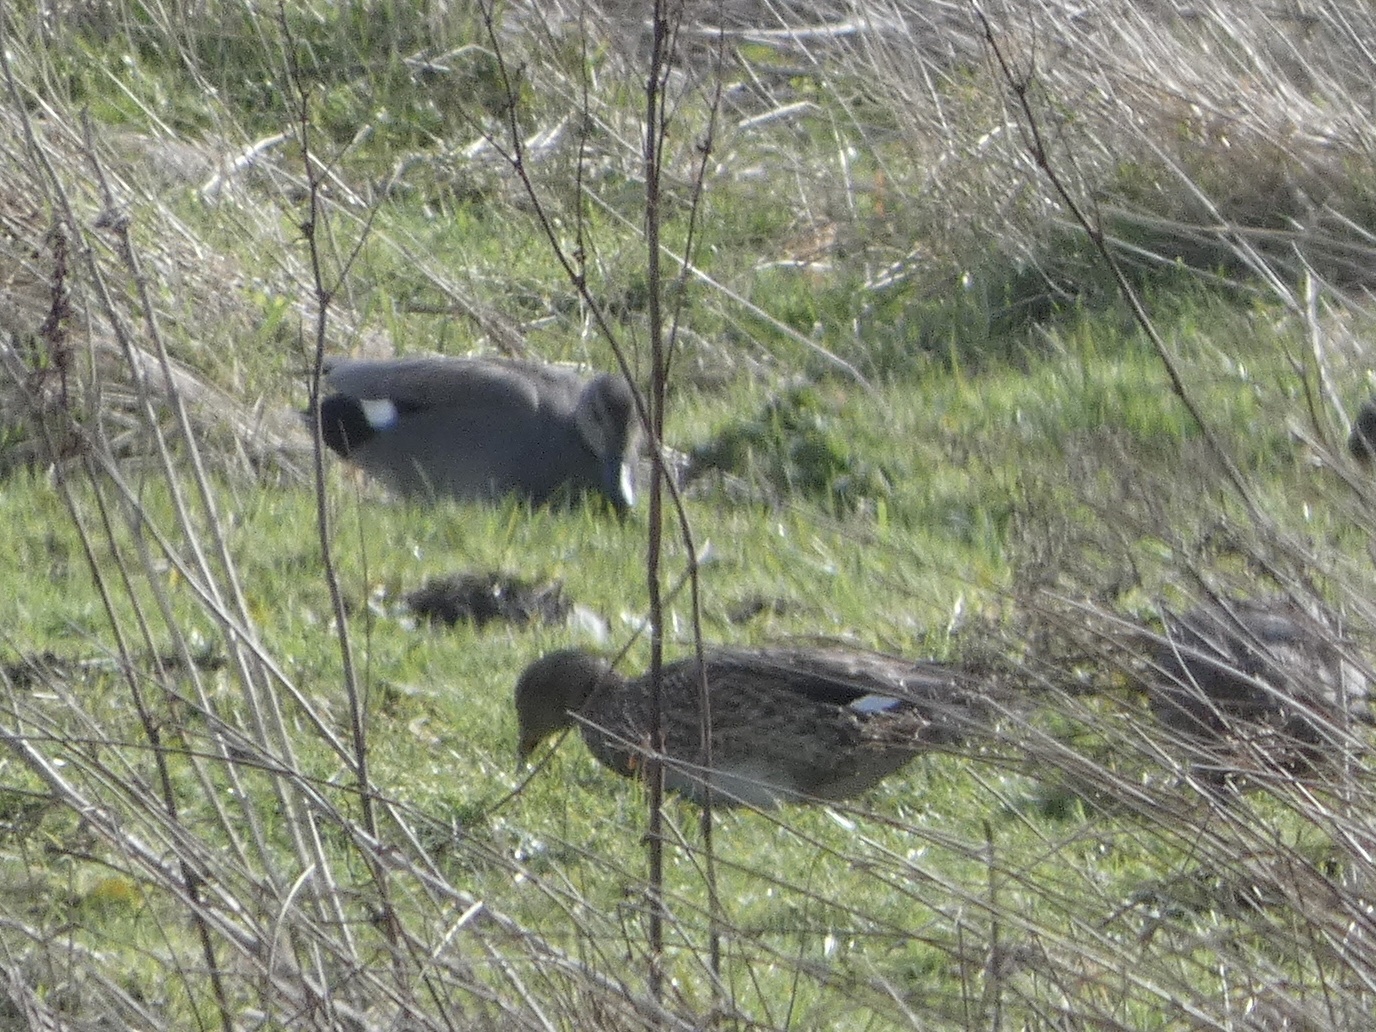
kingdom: Animalia
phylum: Chordata
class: Aves
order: Anseriformes
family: Anatidae
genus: Mareca
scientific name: Mareca strepera
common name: Gadwall
